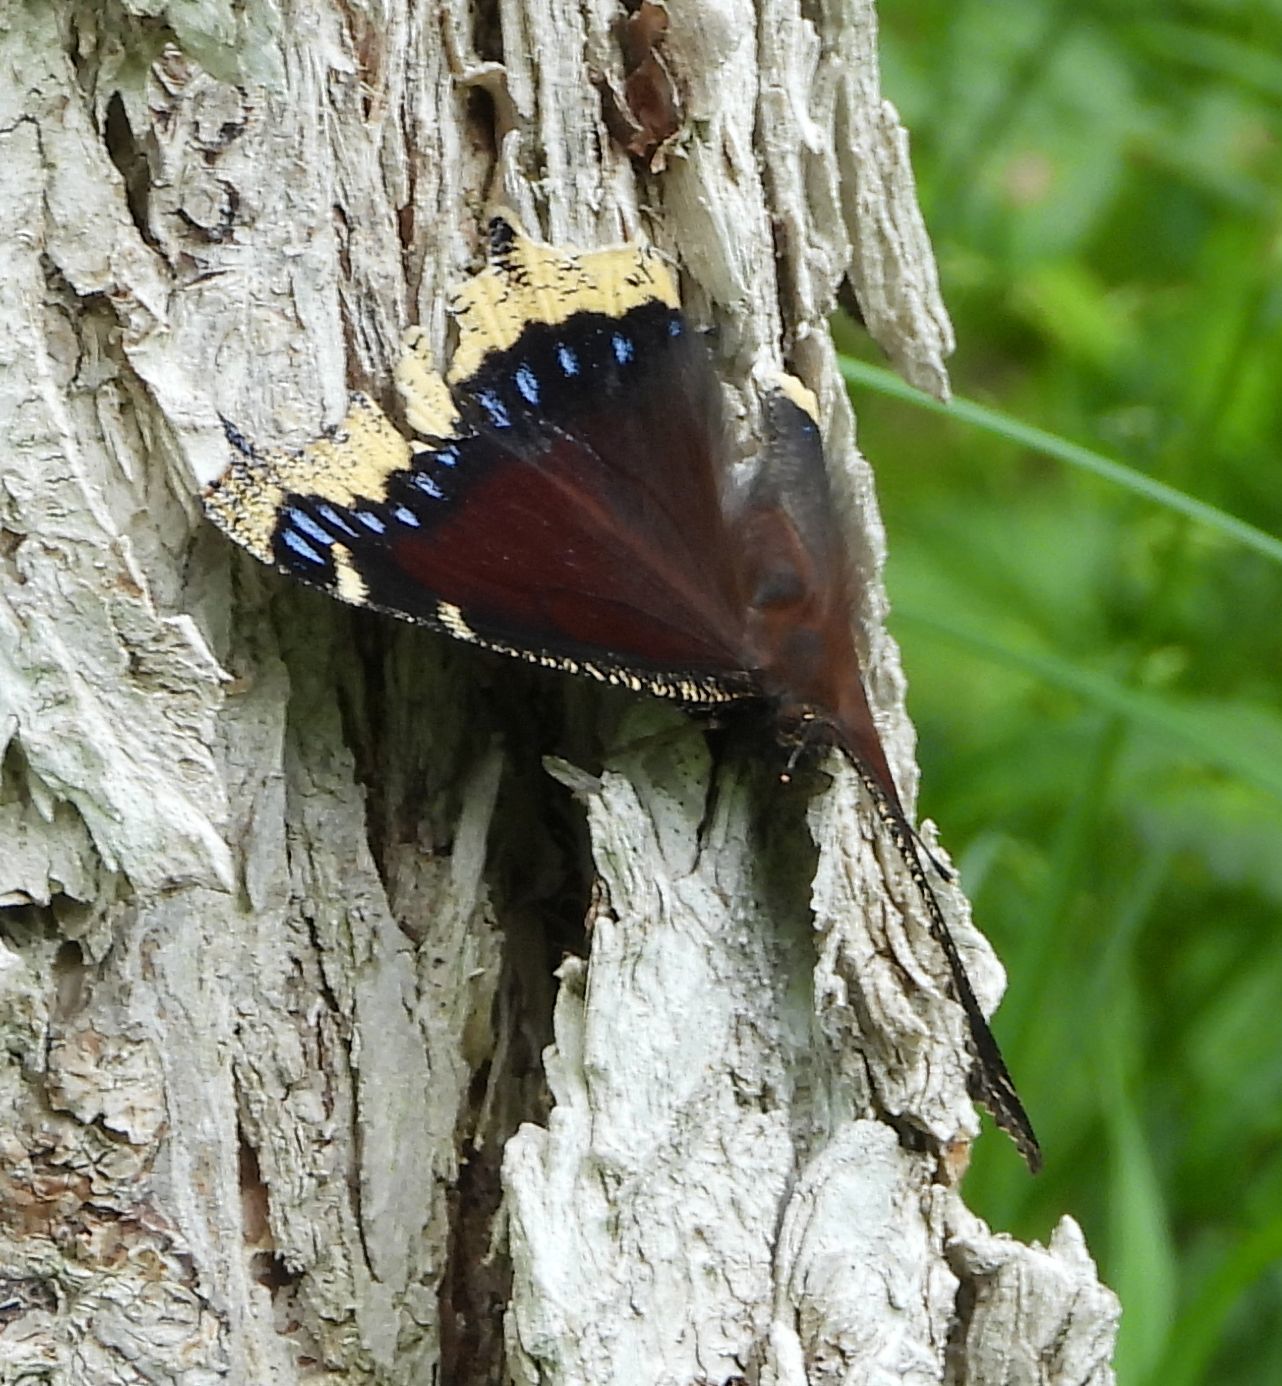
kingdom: Animalia
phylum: Arthropoda
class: Insecta
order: Lepidoptera
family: Nymphalidae
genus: Nymphalis
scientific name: Nymphalis antiopa
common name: Camberwell beauty
